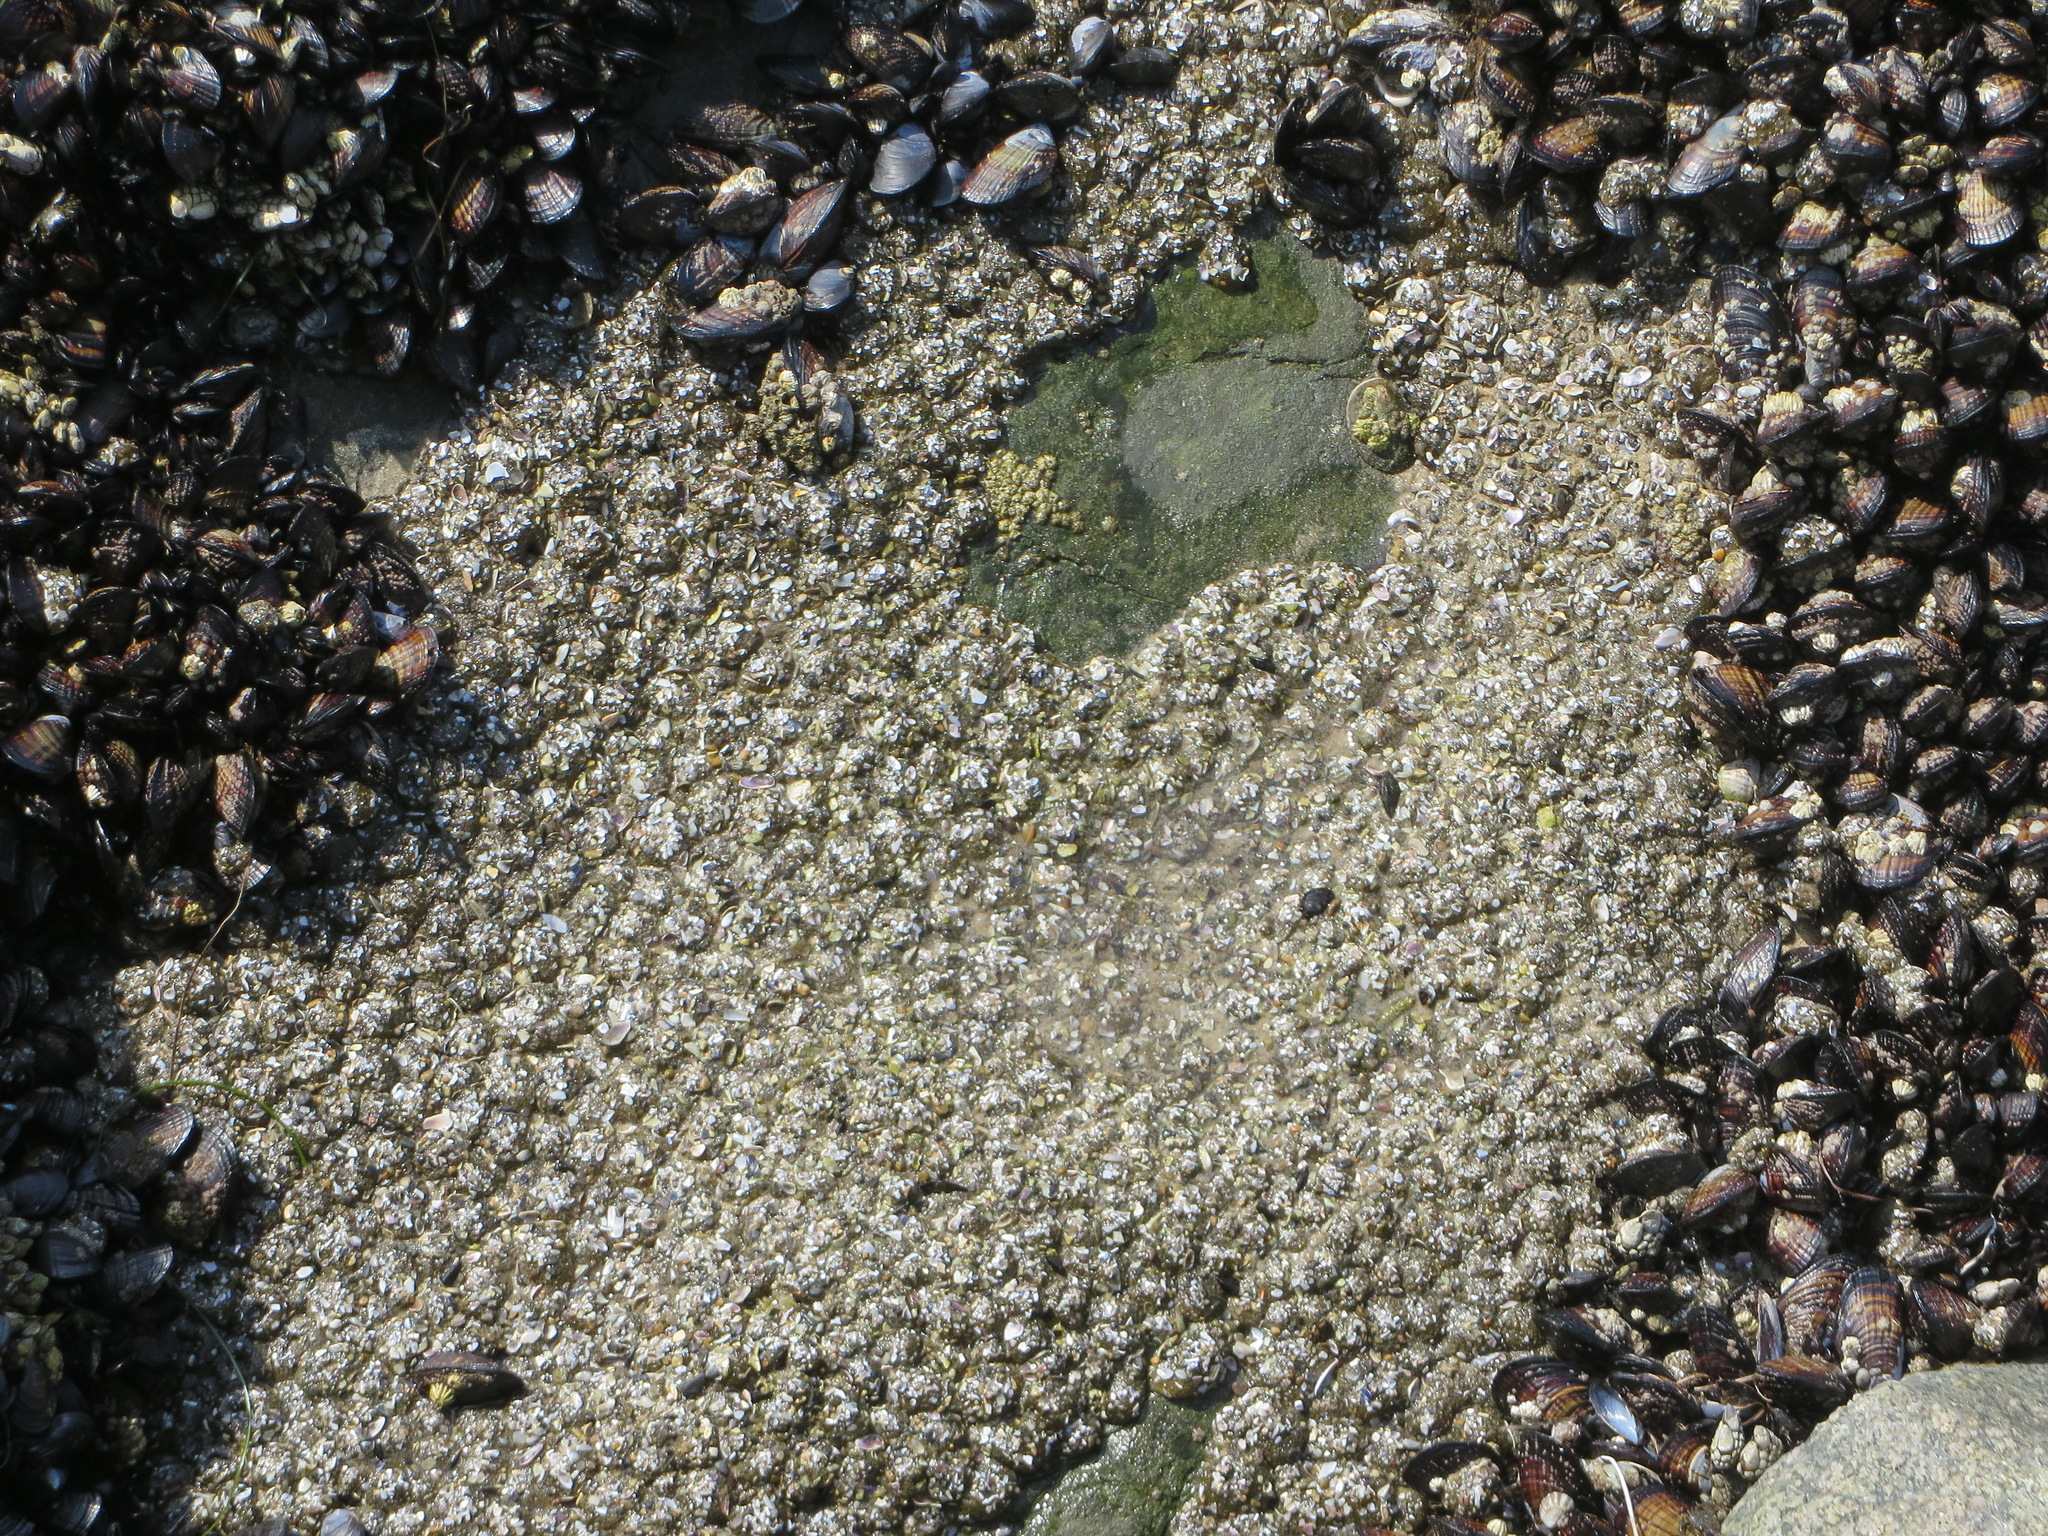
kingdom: Animalia
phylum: Cnidaria
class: Anthozoa
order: Actiniaria
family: Actiniidae
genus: Anthopleura
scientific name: Anthopleura elegantissima
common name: Clonal anemone
